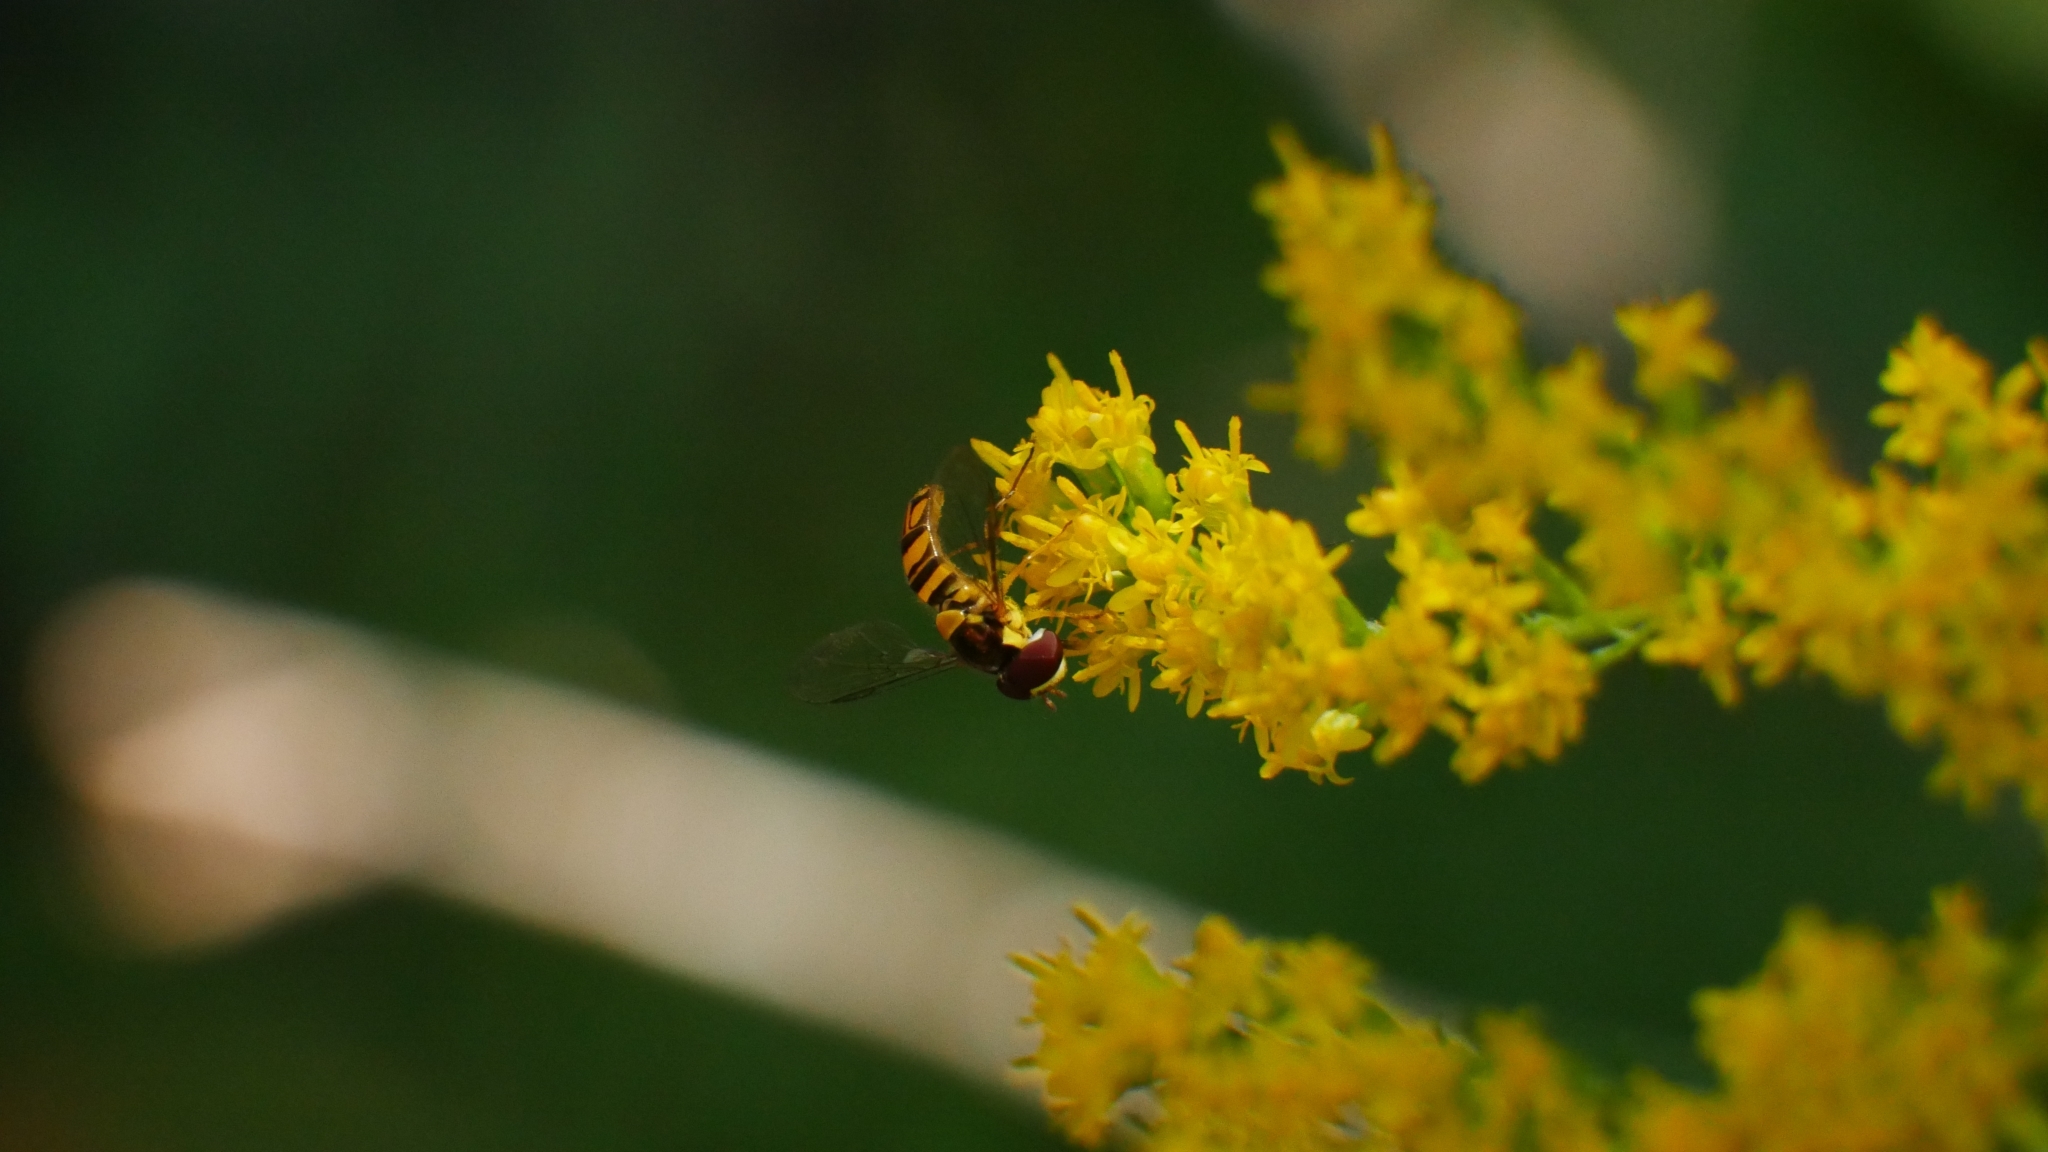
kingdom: Animalia
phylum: Arthropoda
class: Insecta
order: Diptera
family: Syrphidae
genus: Allograpta
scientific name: Allograpta obliqua
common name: Common oblique syrphid
